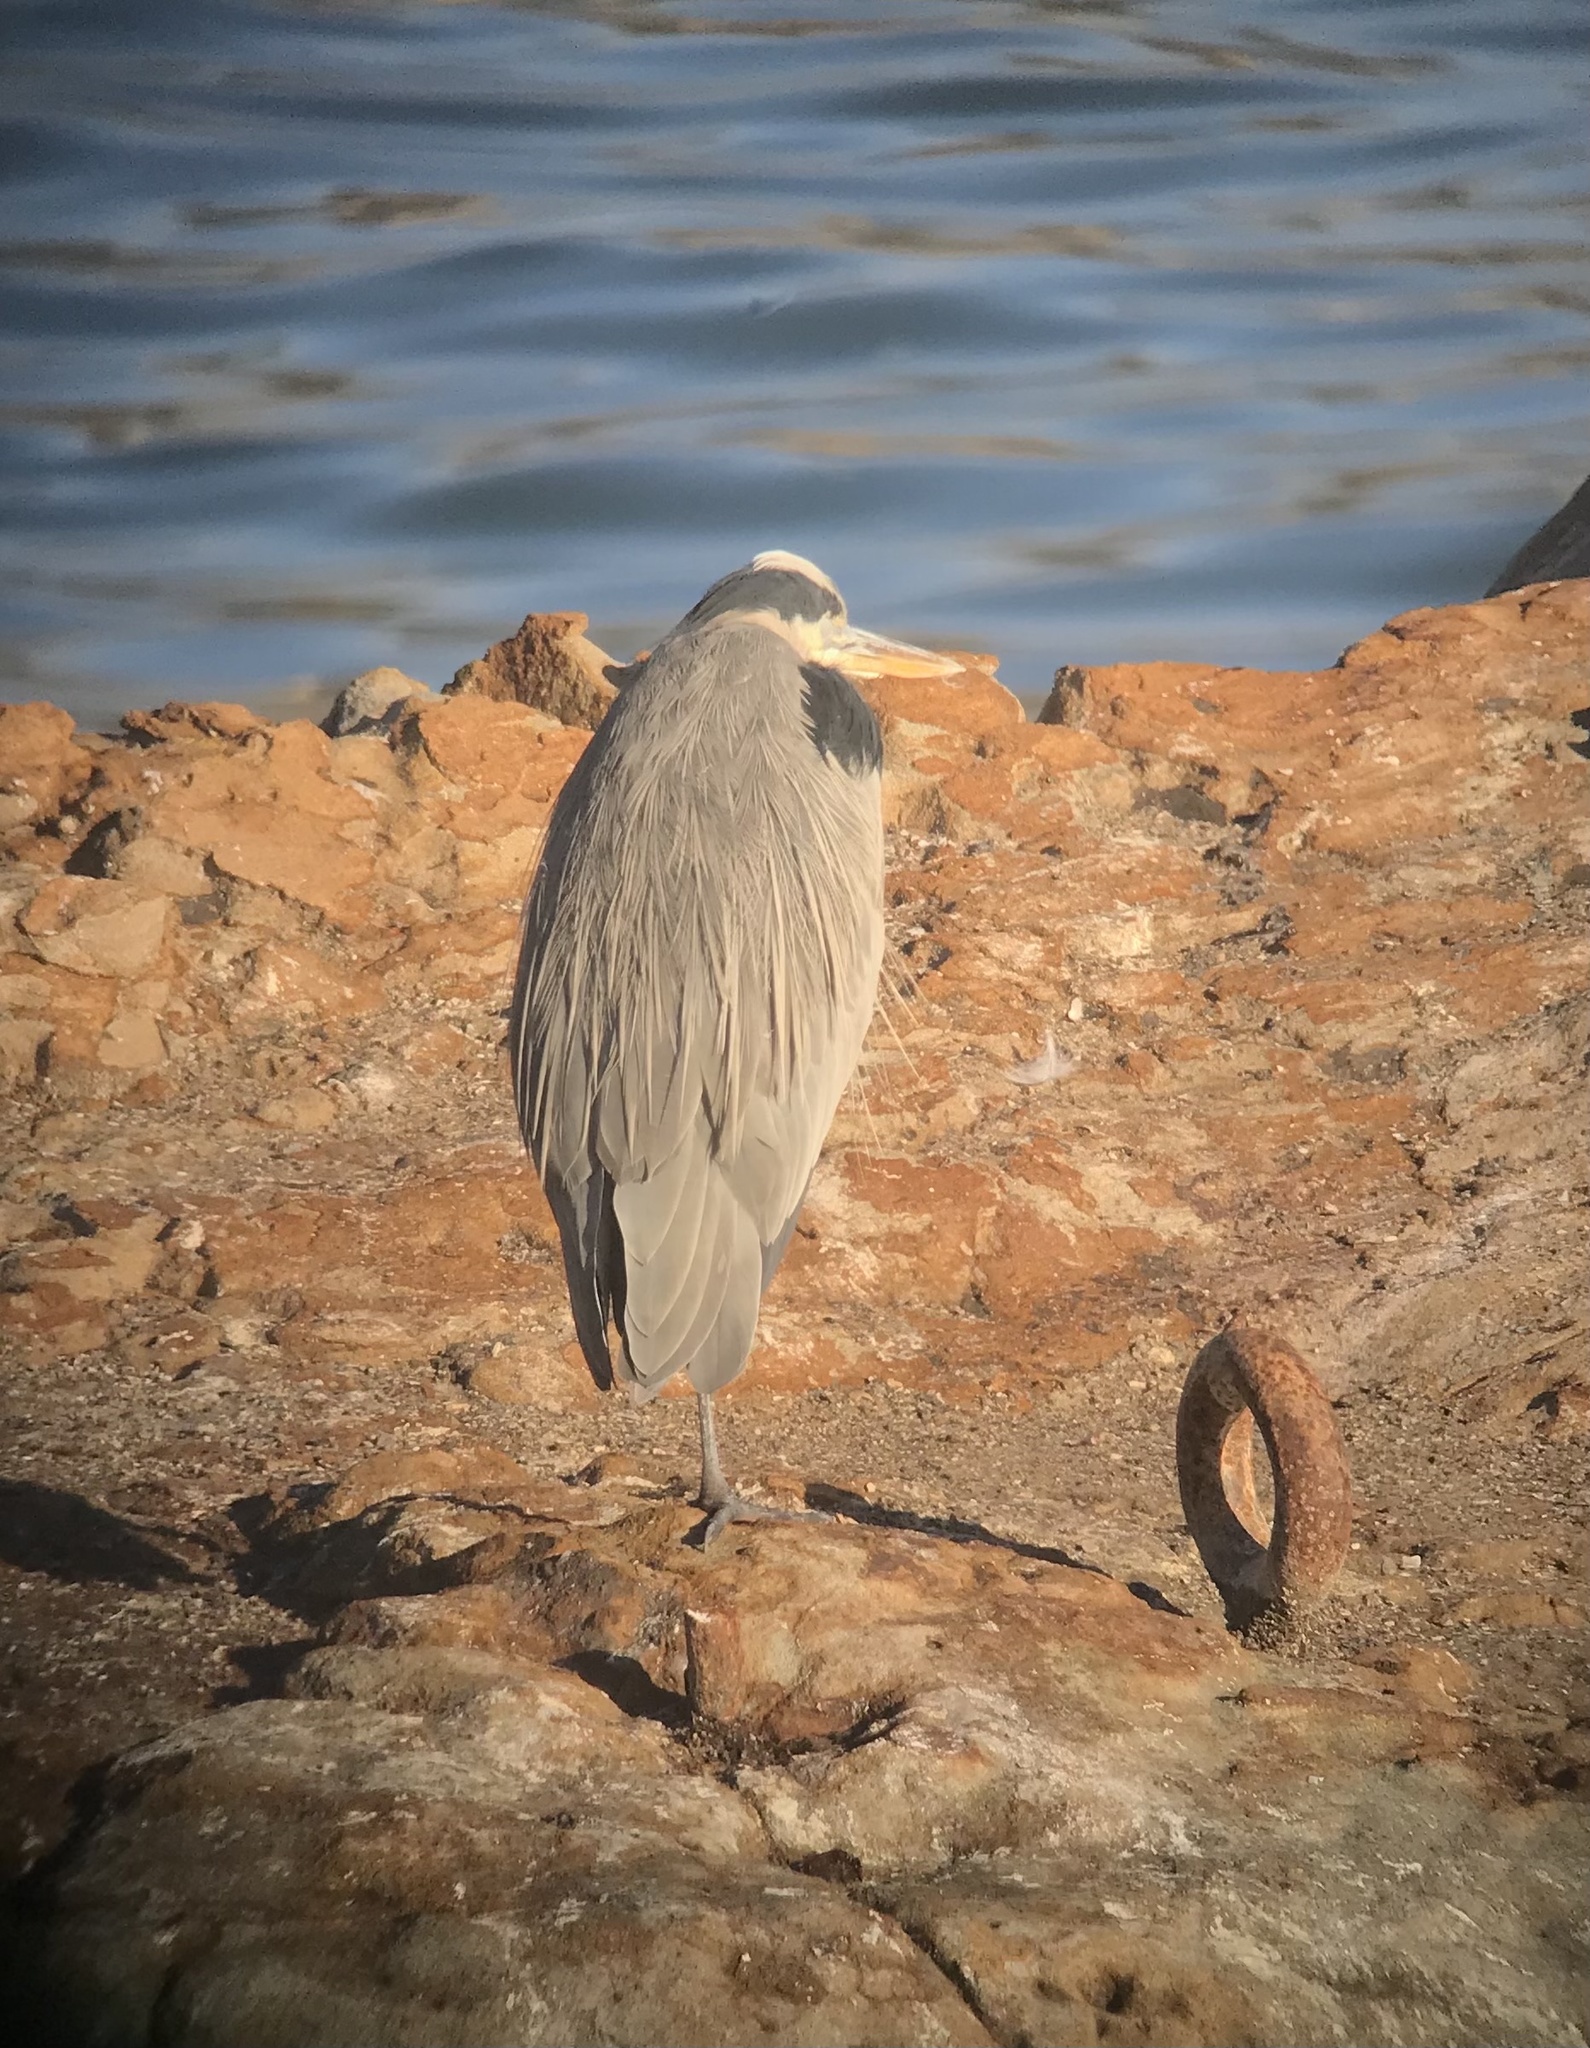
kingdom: Animalia
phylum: Chordata
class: Aves
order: Pelecaniformes
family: Ardeidae
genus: Ardea
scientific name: Ardea herodias
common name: Great blue heron
